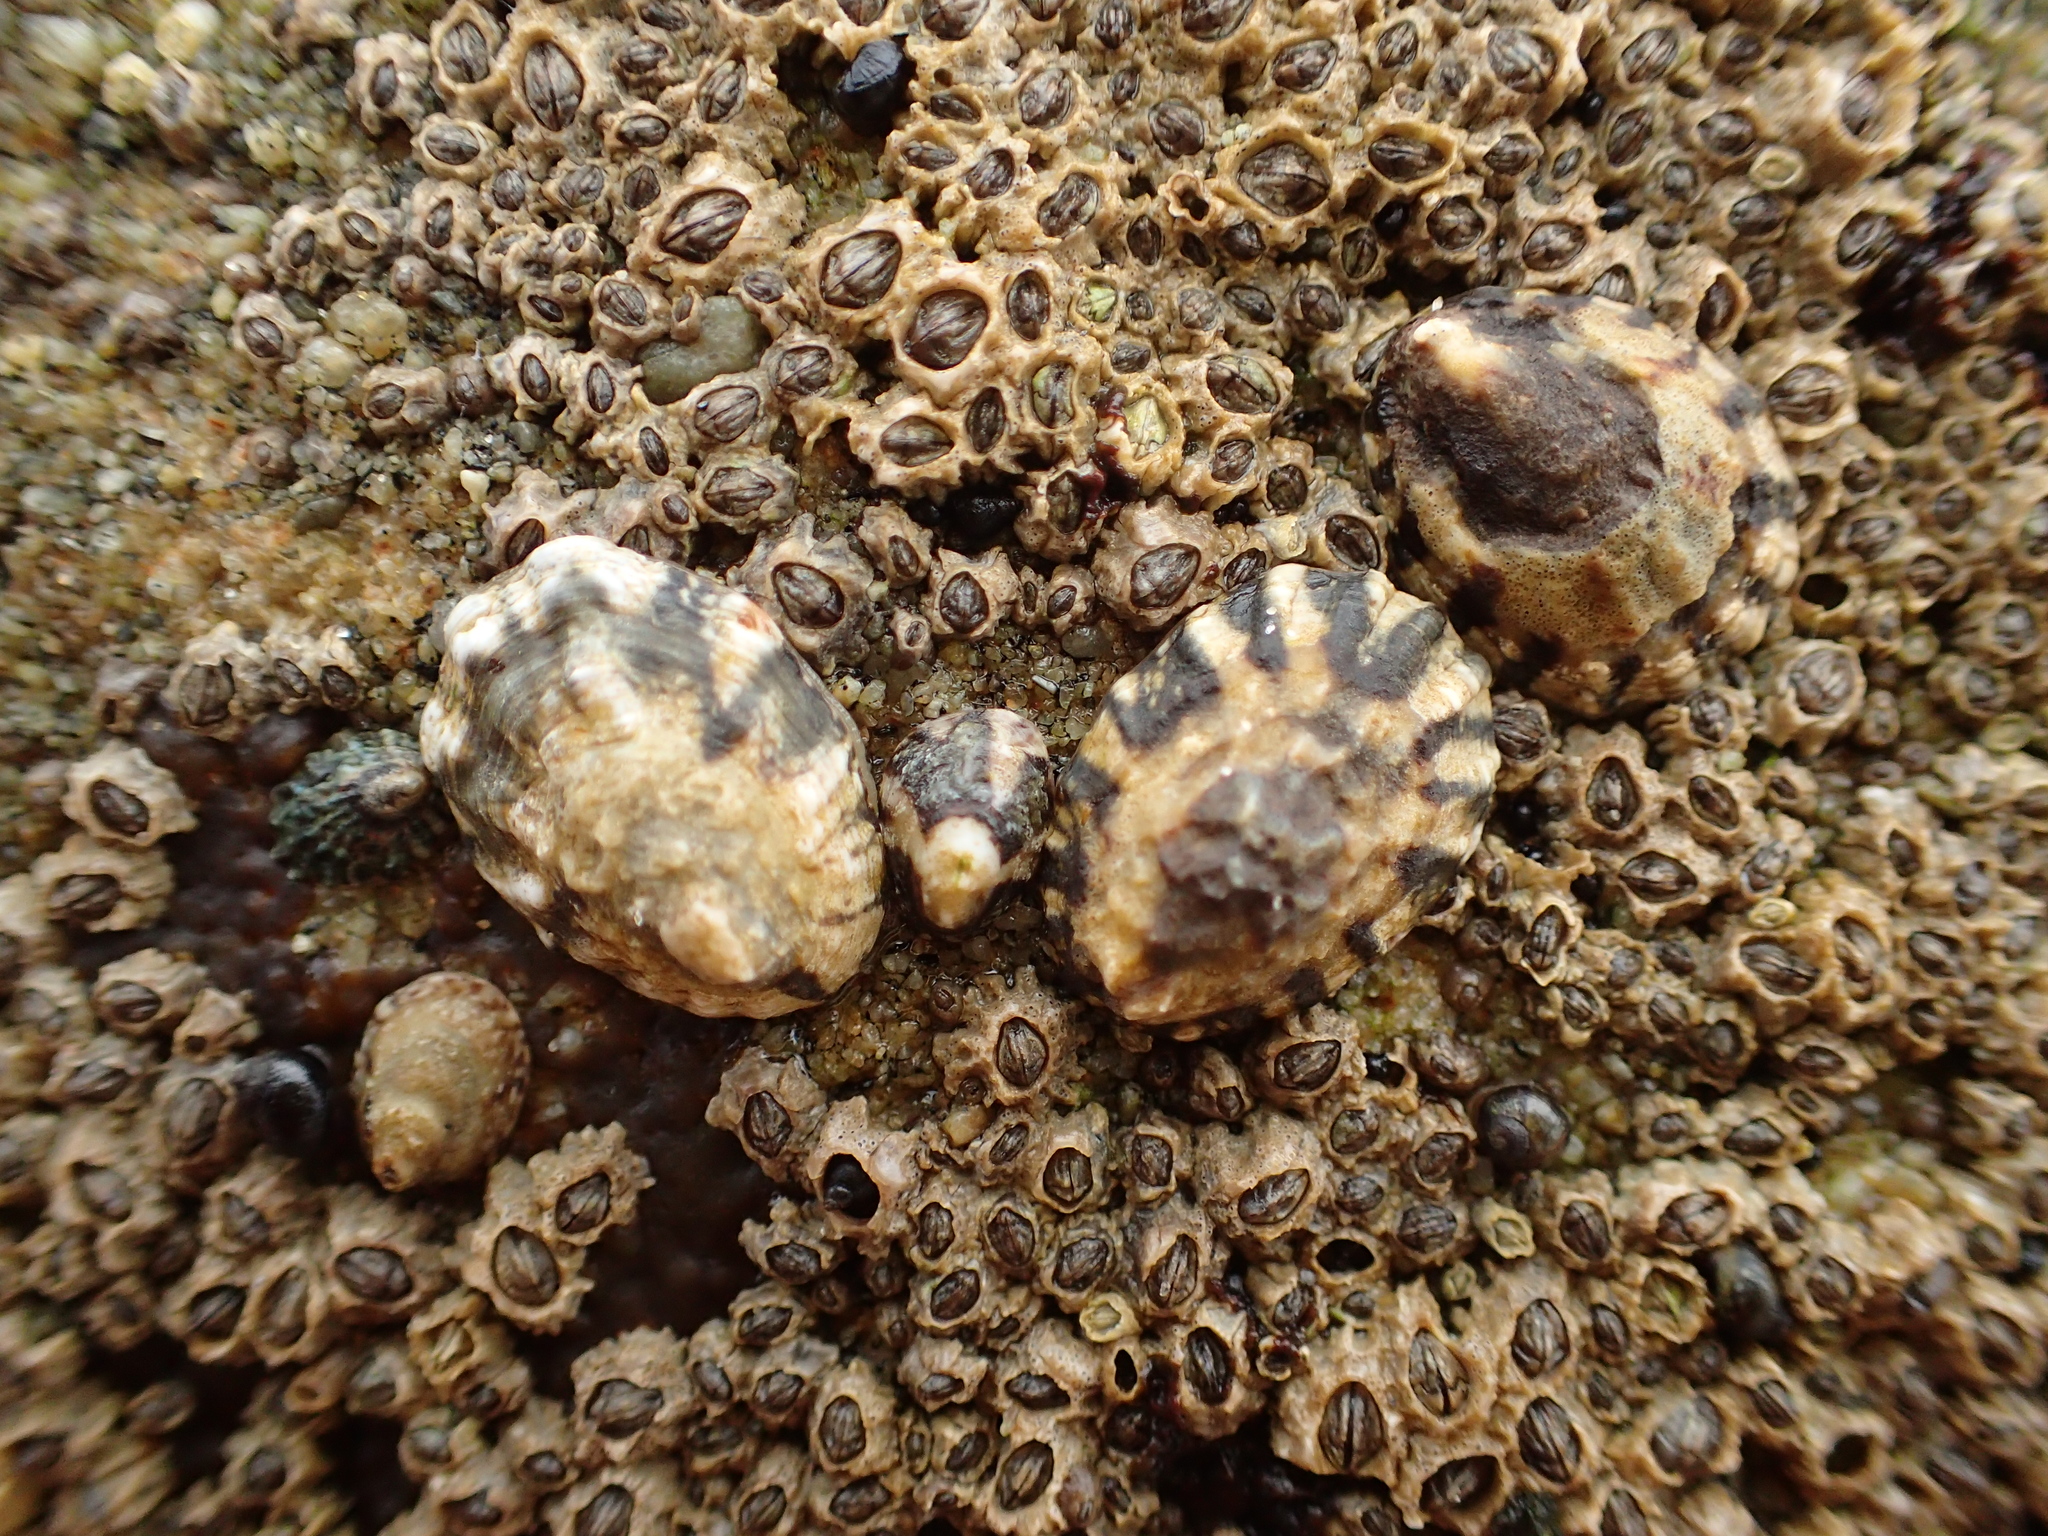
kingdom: Animalia
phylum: Mollusca
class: Gastropoda
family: Lottiidae
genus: Lottia
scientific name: Lottia digitalis
